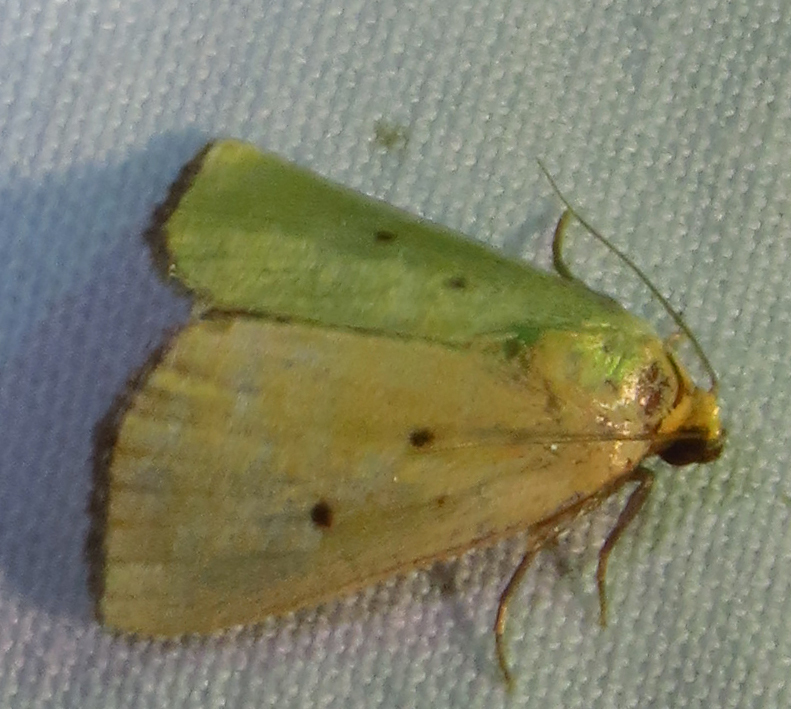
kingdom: Animalia
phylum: Arthropoda
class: Insecta
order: Lepidoptera
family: Noctuidae
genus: Marimatha
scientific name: Marimatha nigrofimbria
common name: Black-bordered lemon moth
